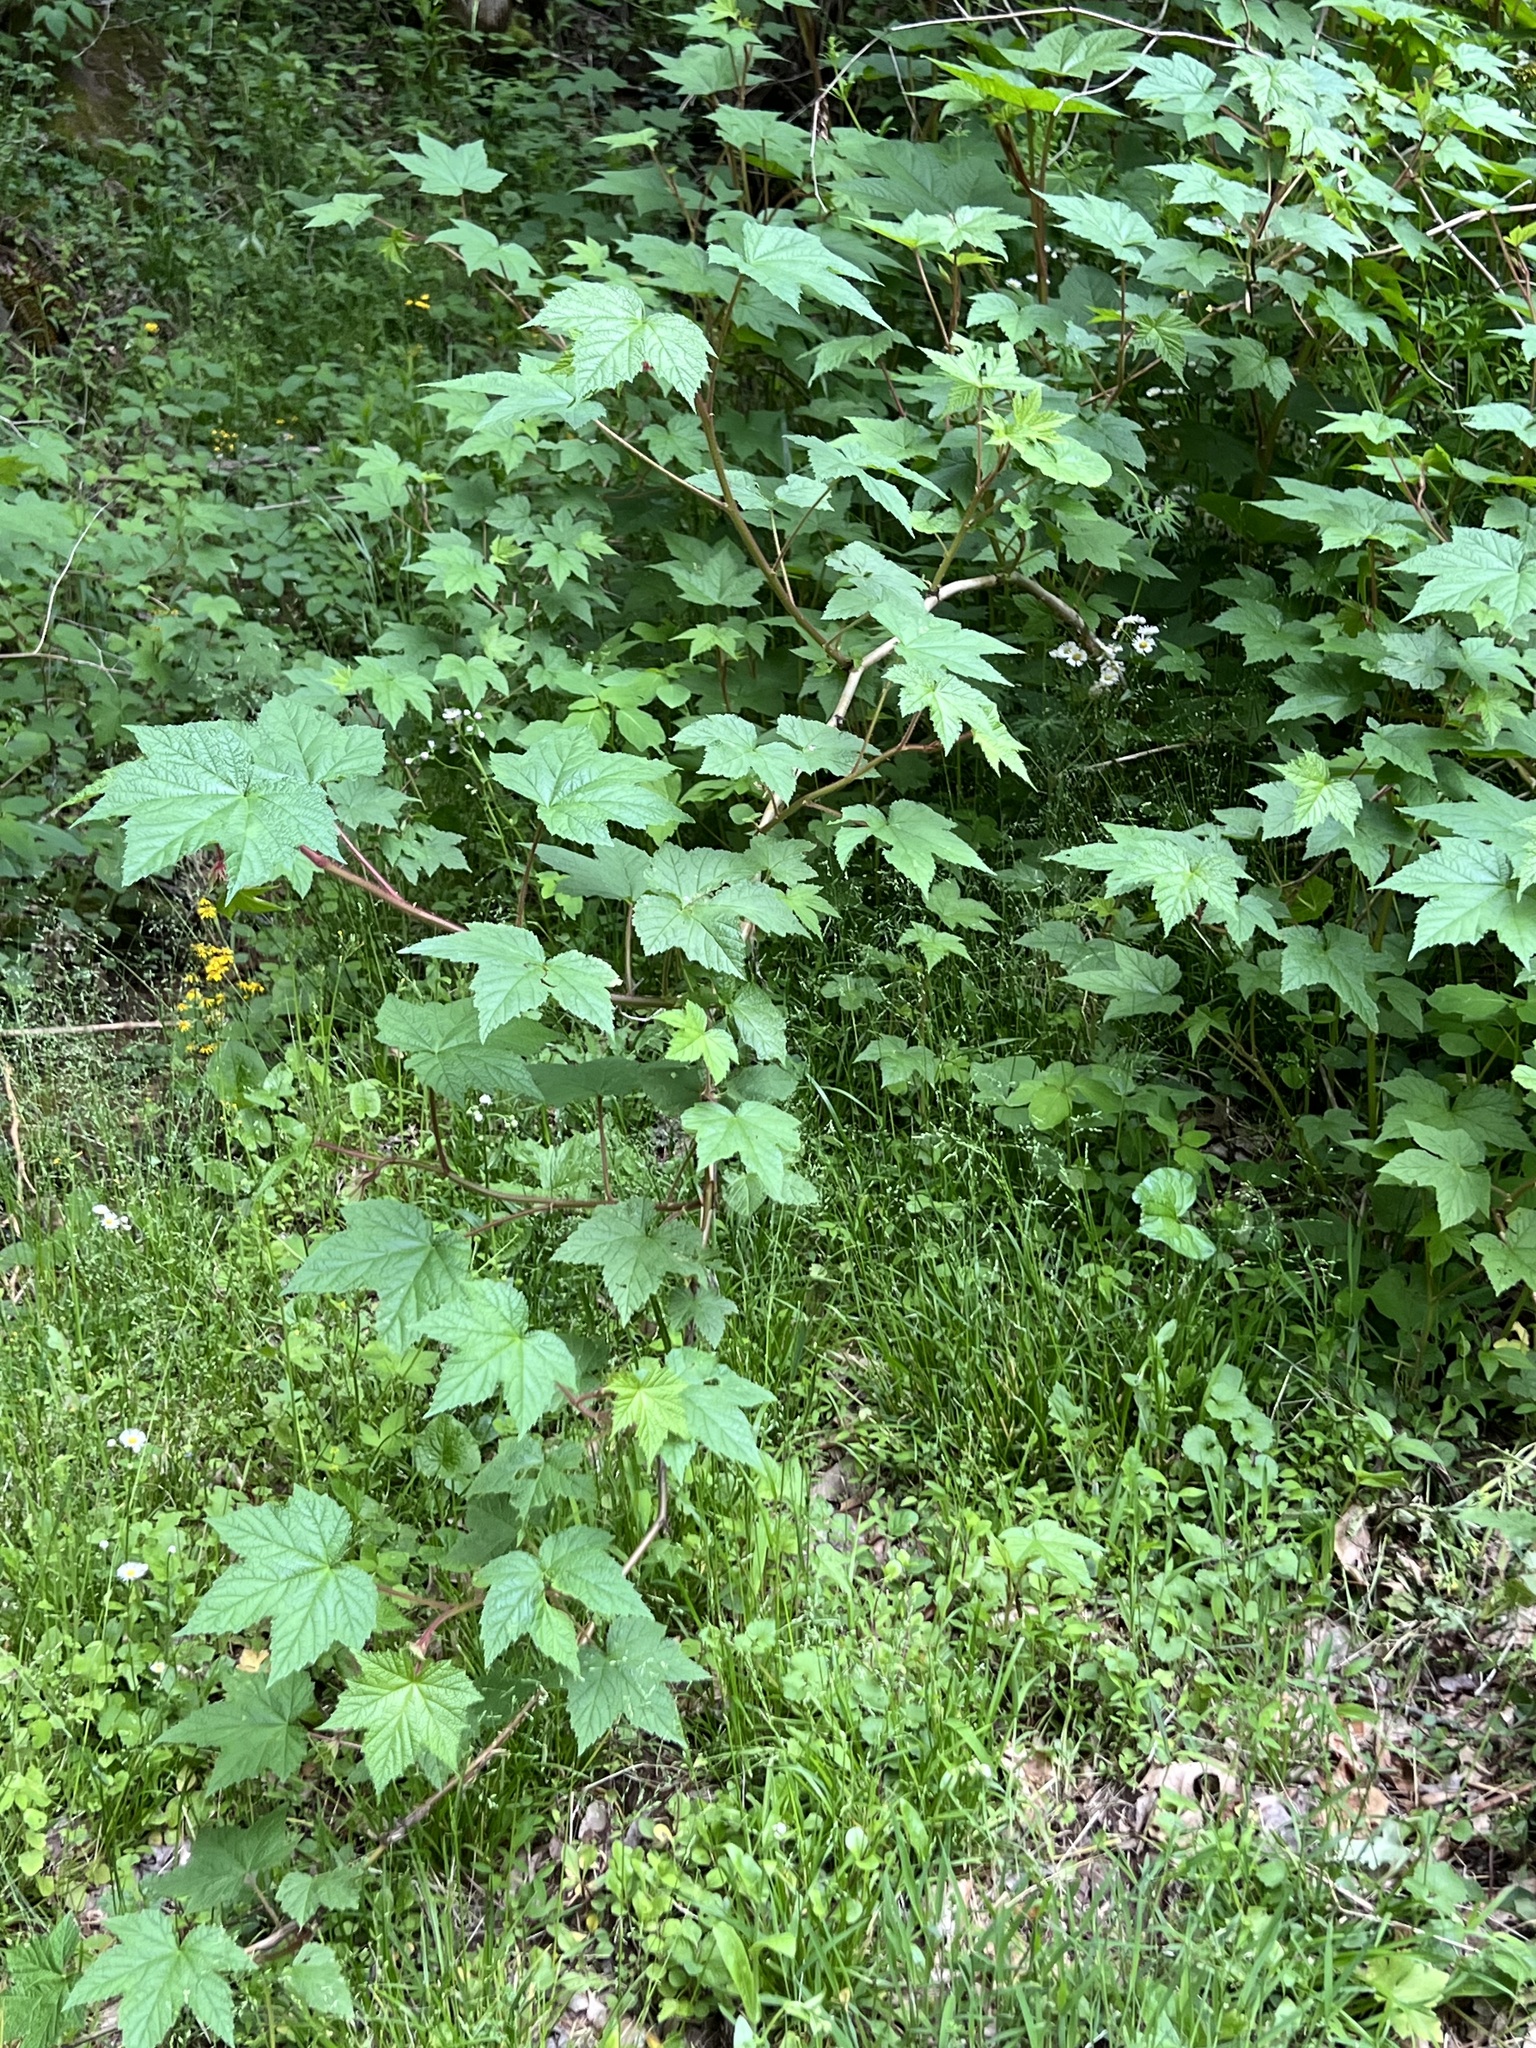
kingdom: Plantae
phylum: Tracheophyta
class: Magnoliopsida
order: Rosales
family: Rosaceae
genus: Rubus
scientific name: Rubus odoratus
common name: Purple-flowered raspberry
